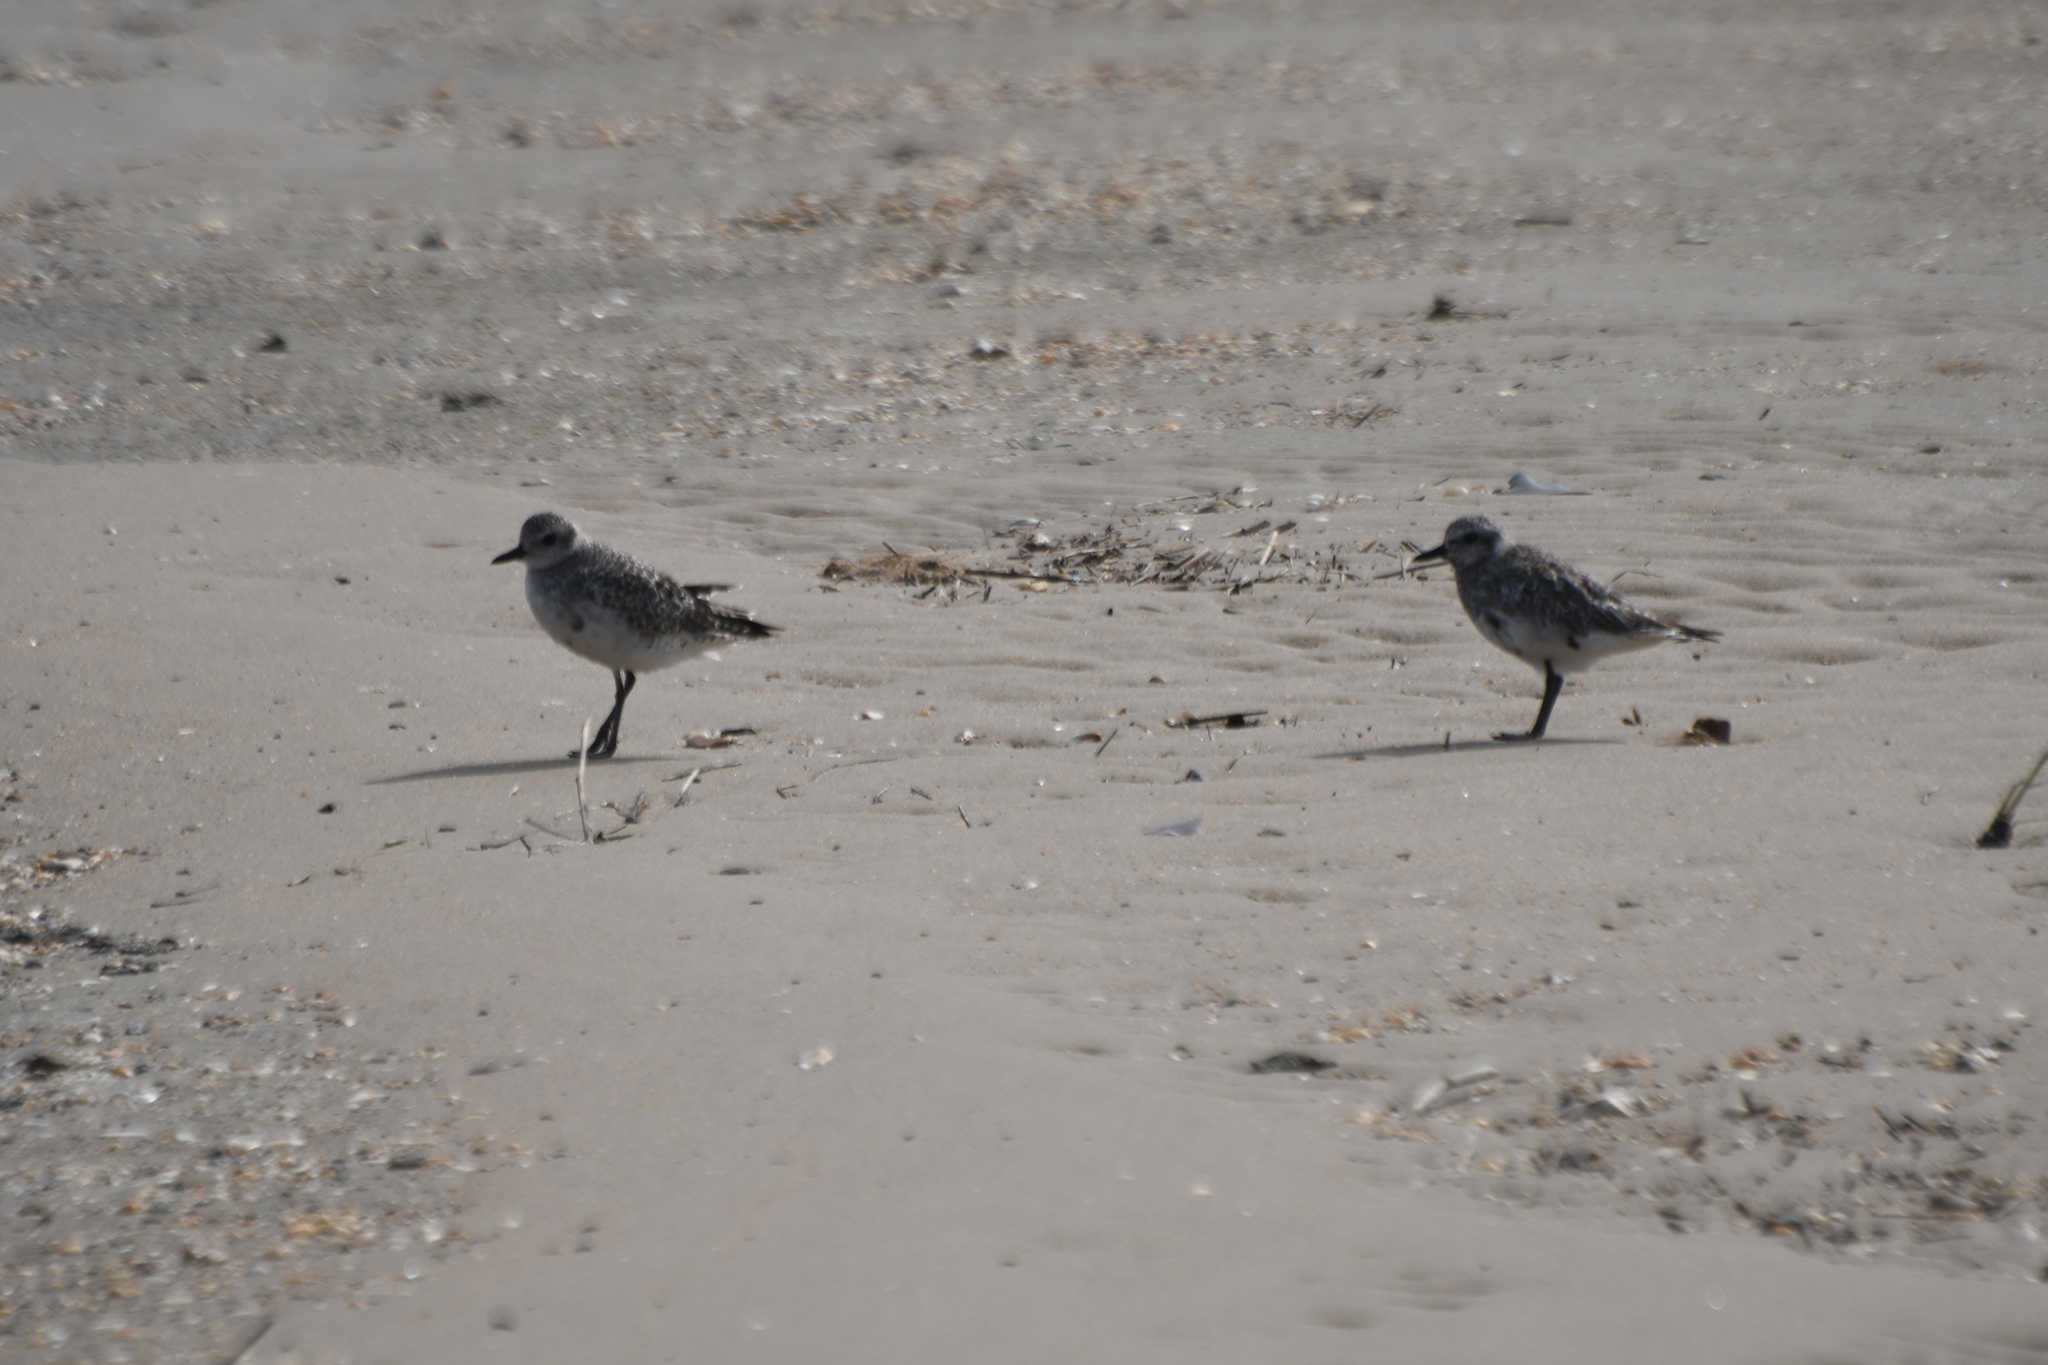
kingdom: Animalia
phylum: Chordata
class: Aves
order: Charadriiformes
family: Charadriidae
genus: Pluvialis
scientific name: Pluvialis squatarola
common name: Grey plover
